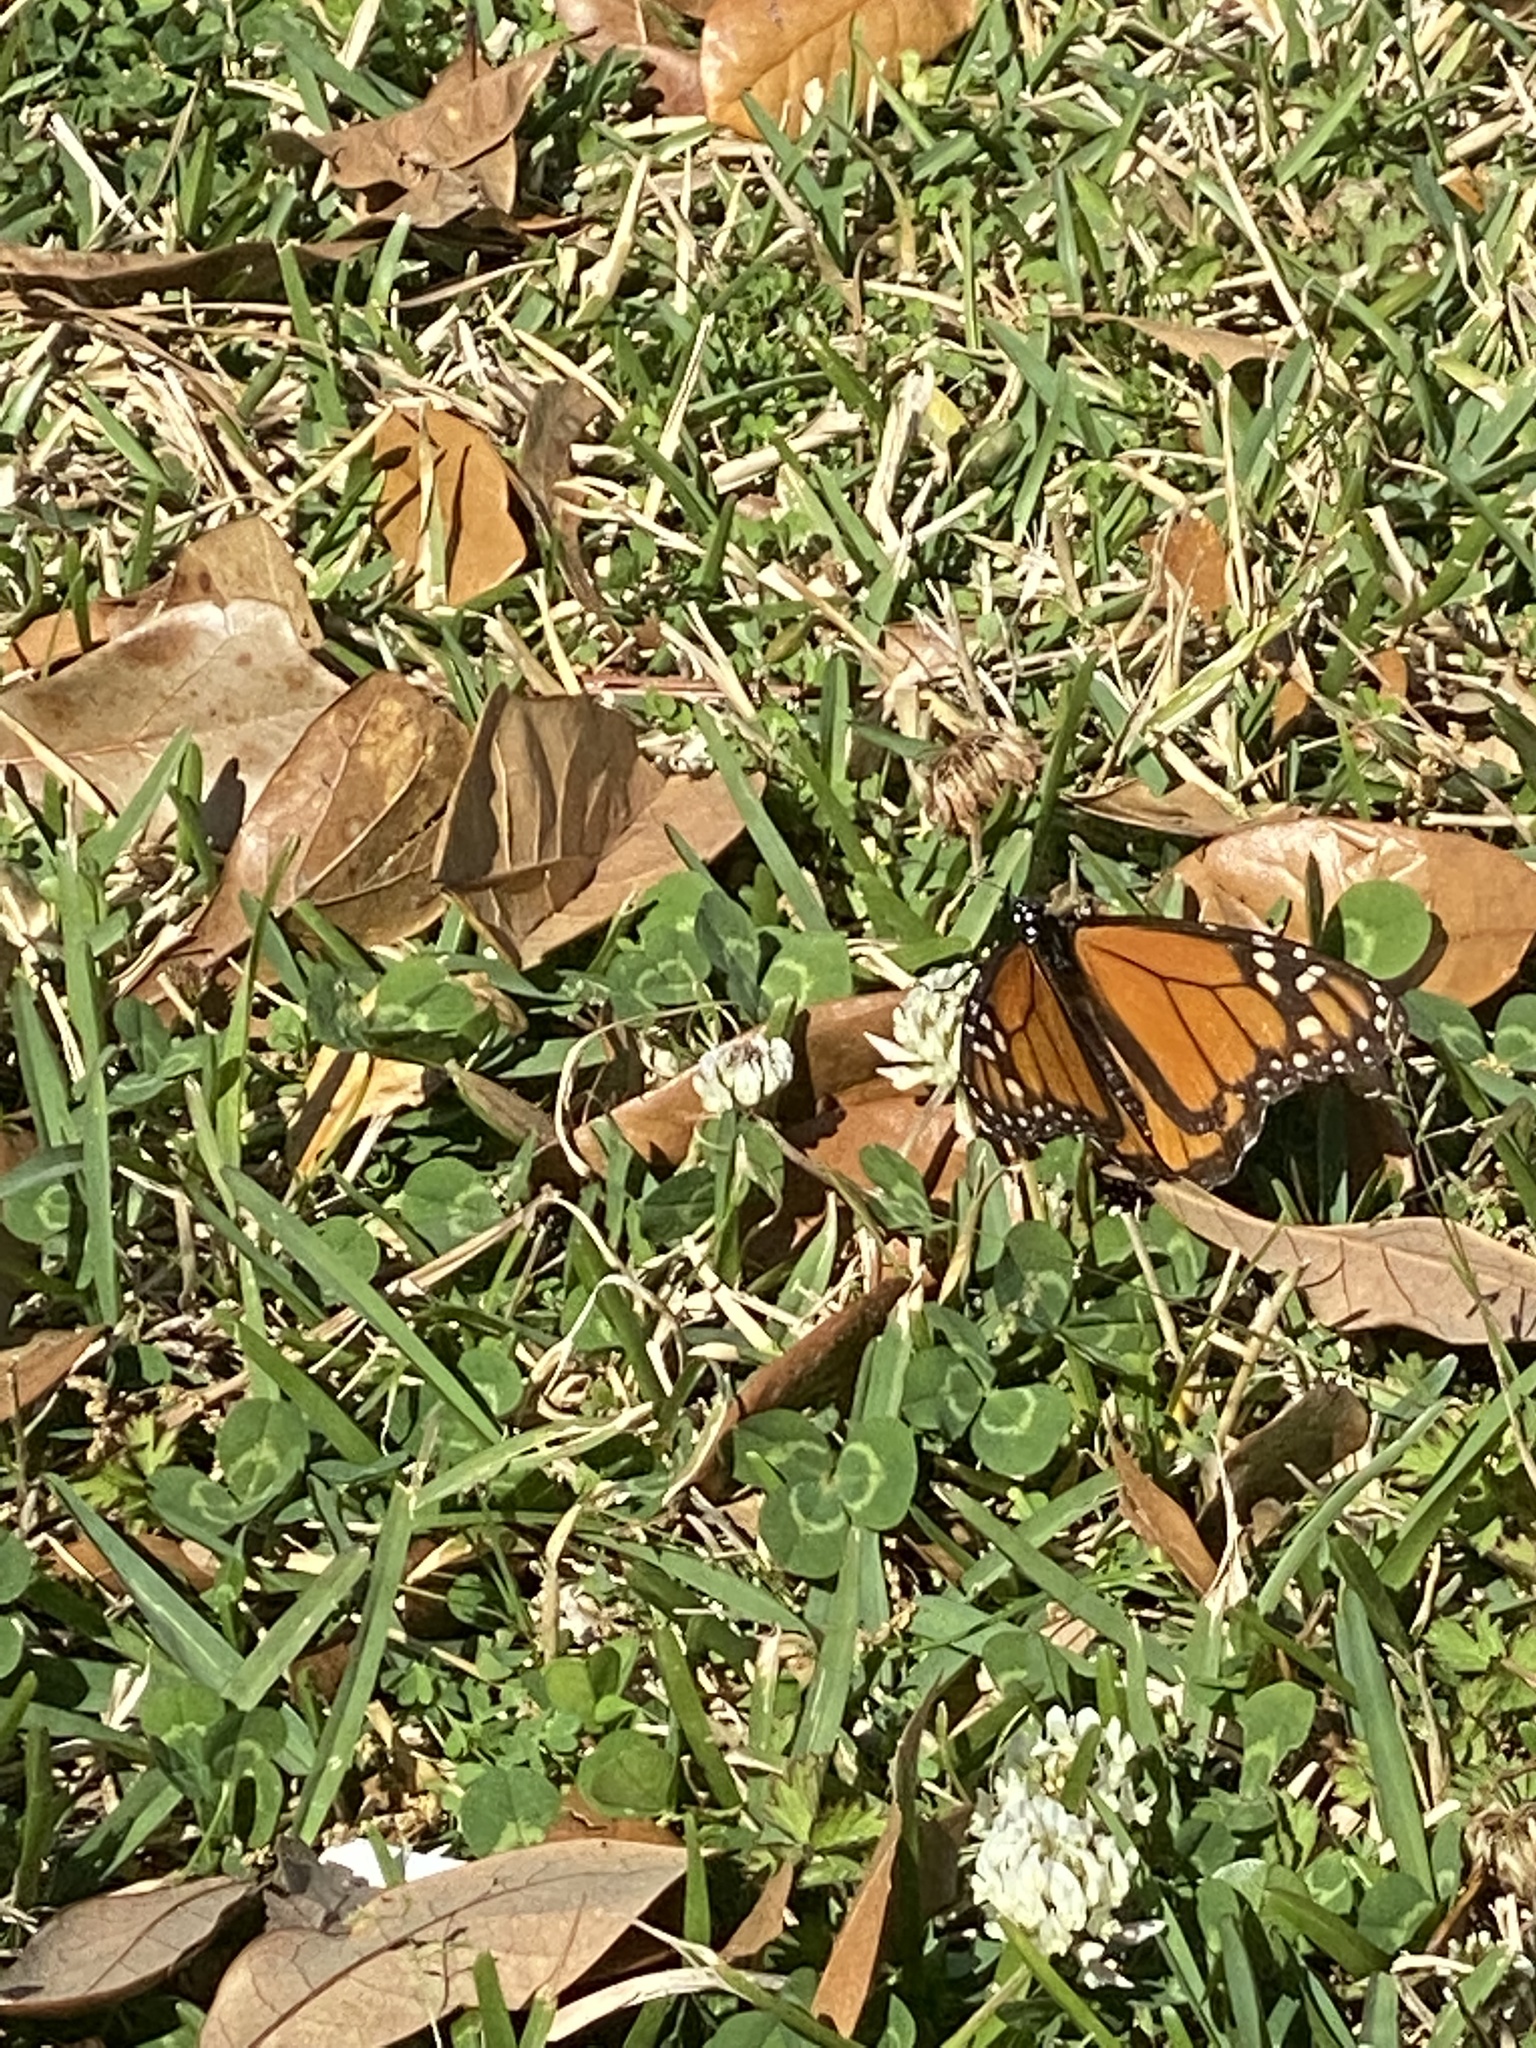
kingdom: Animalia
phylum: Arthropoda
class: Insecta
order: Lepidoptera
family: Nymphalidae
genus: Danaus
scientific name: Danaus plexippus
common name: Monarch
